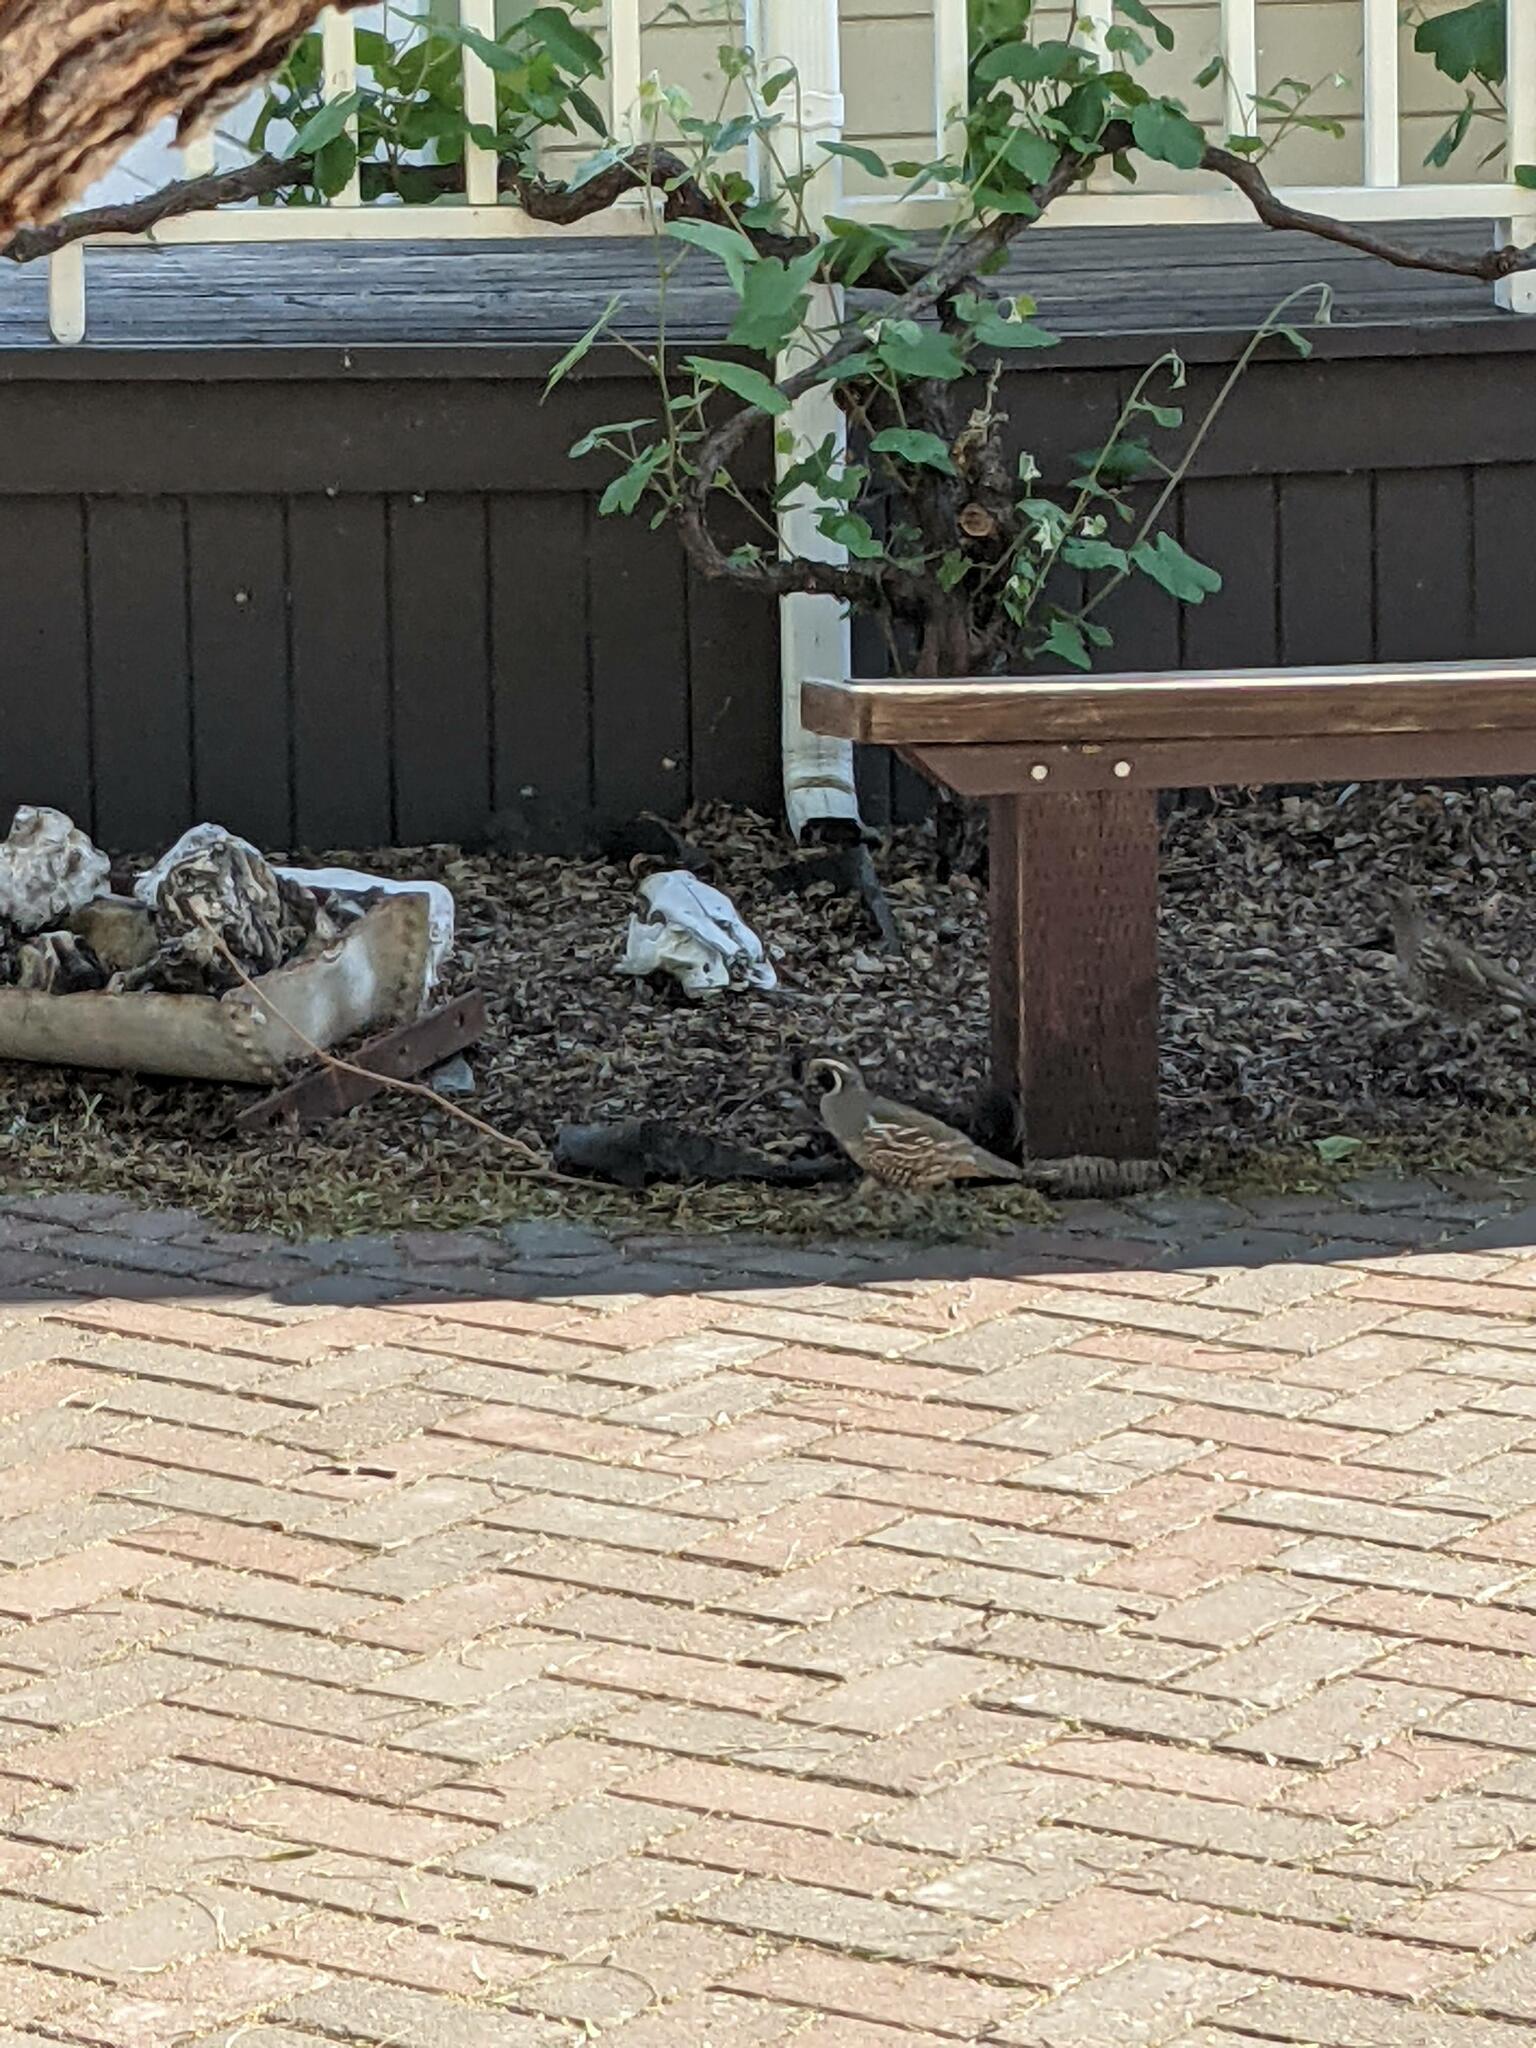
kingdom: Animalia
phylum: Chordata
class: Aves
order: Galliformes
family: Odontophoridae
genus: Callipepla
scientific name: Callipepla californica
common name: California quail
